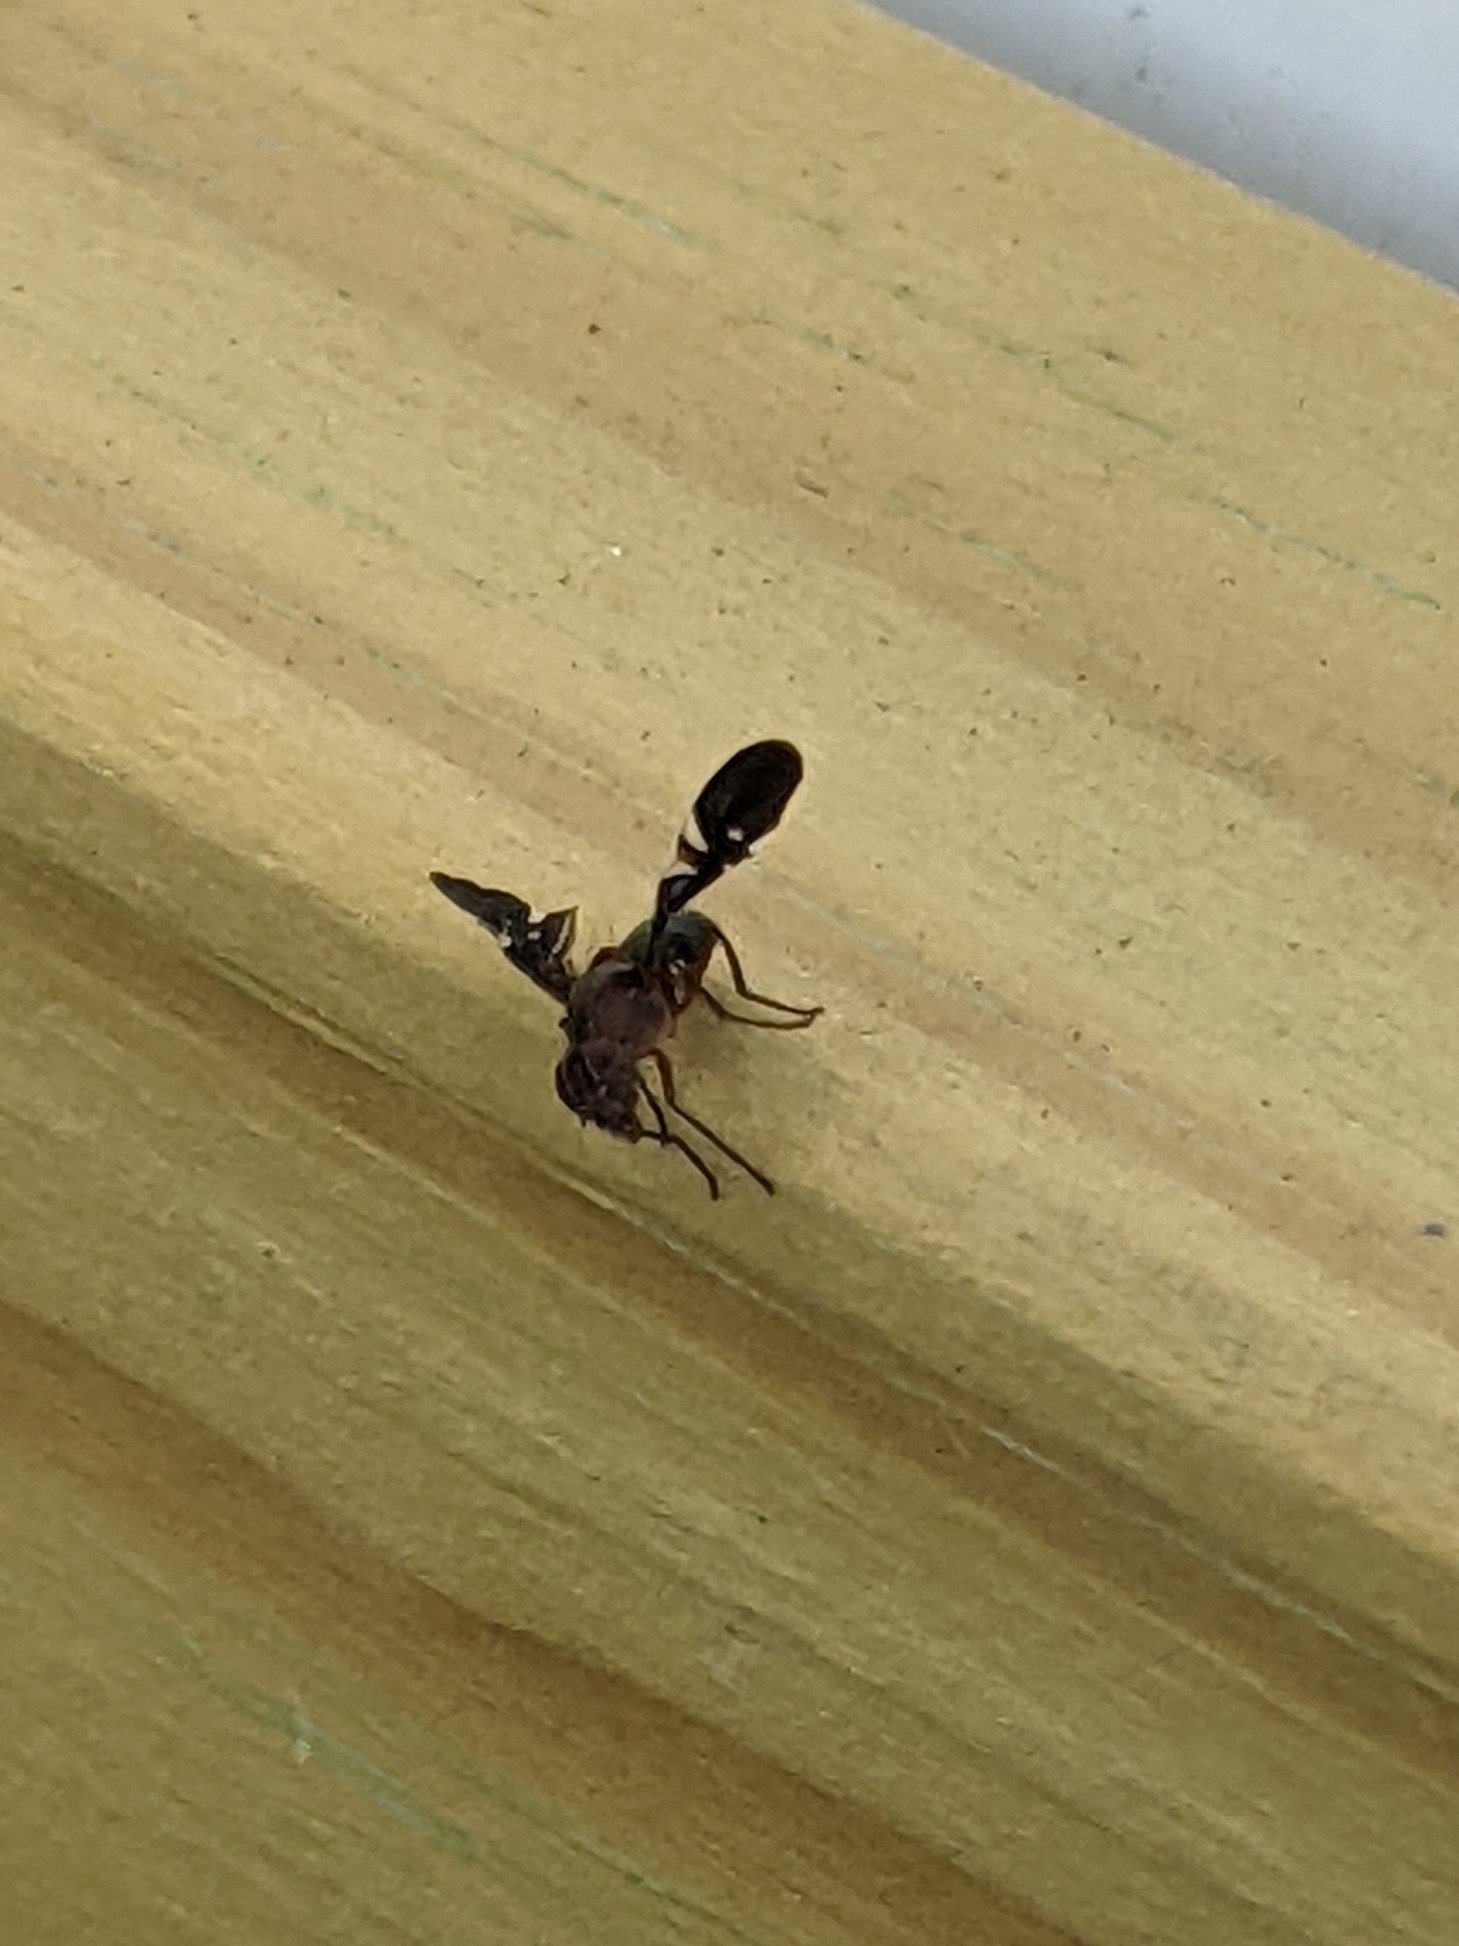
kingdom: Animalia
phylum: Arthropoda
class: Insecta
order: Diptera
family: Ulidiidae
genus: Delphinia
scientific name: Delphinia picta
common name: Common picture-winged fly
